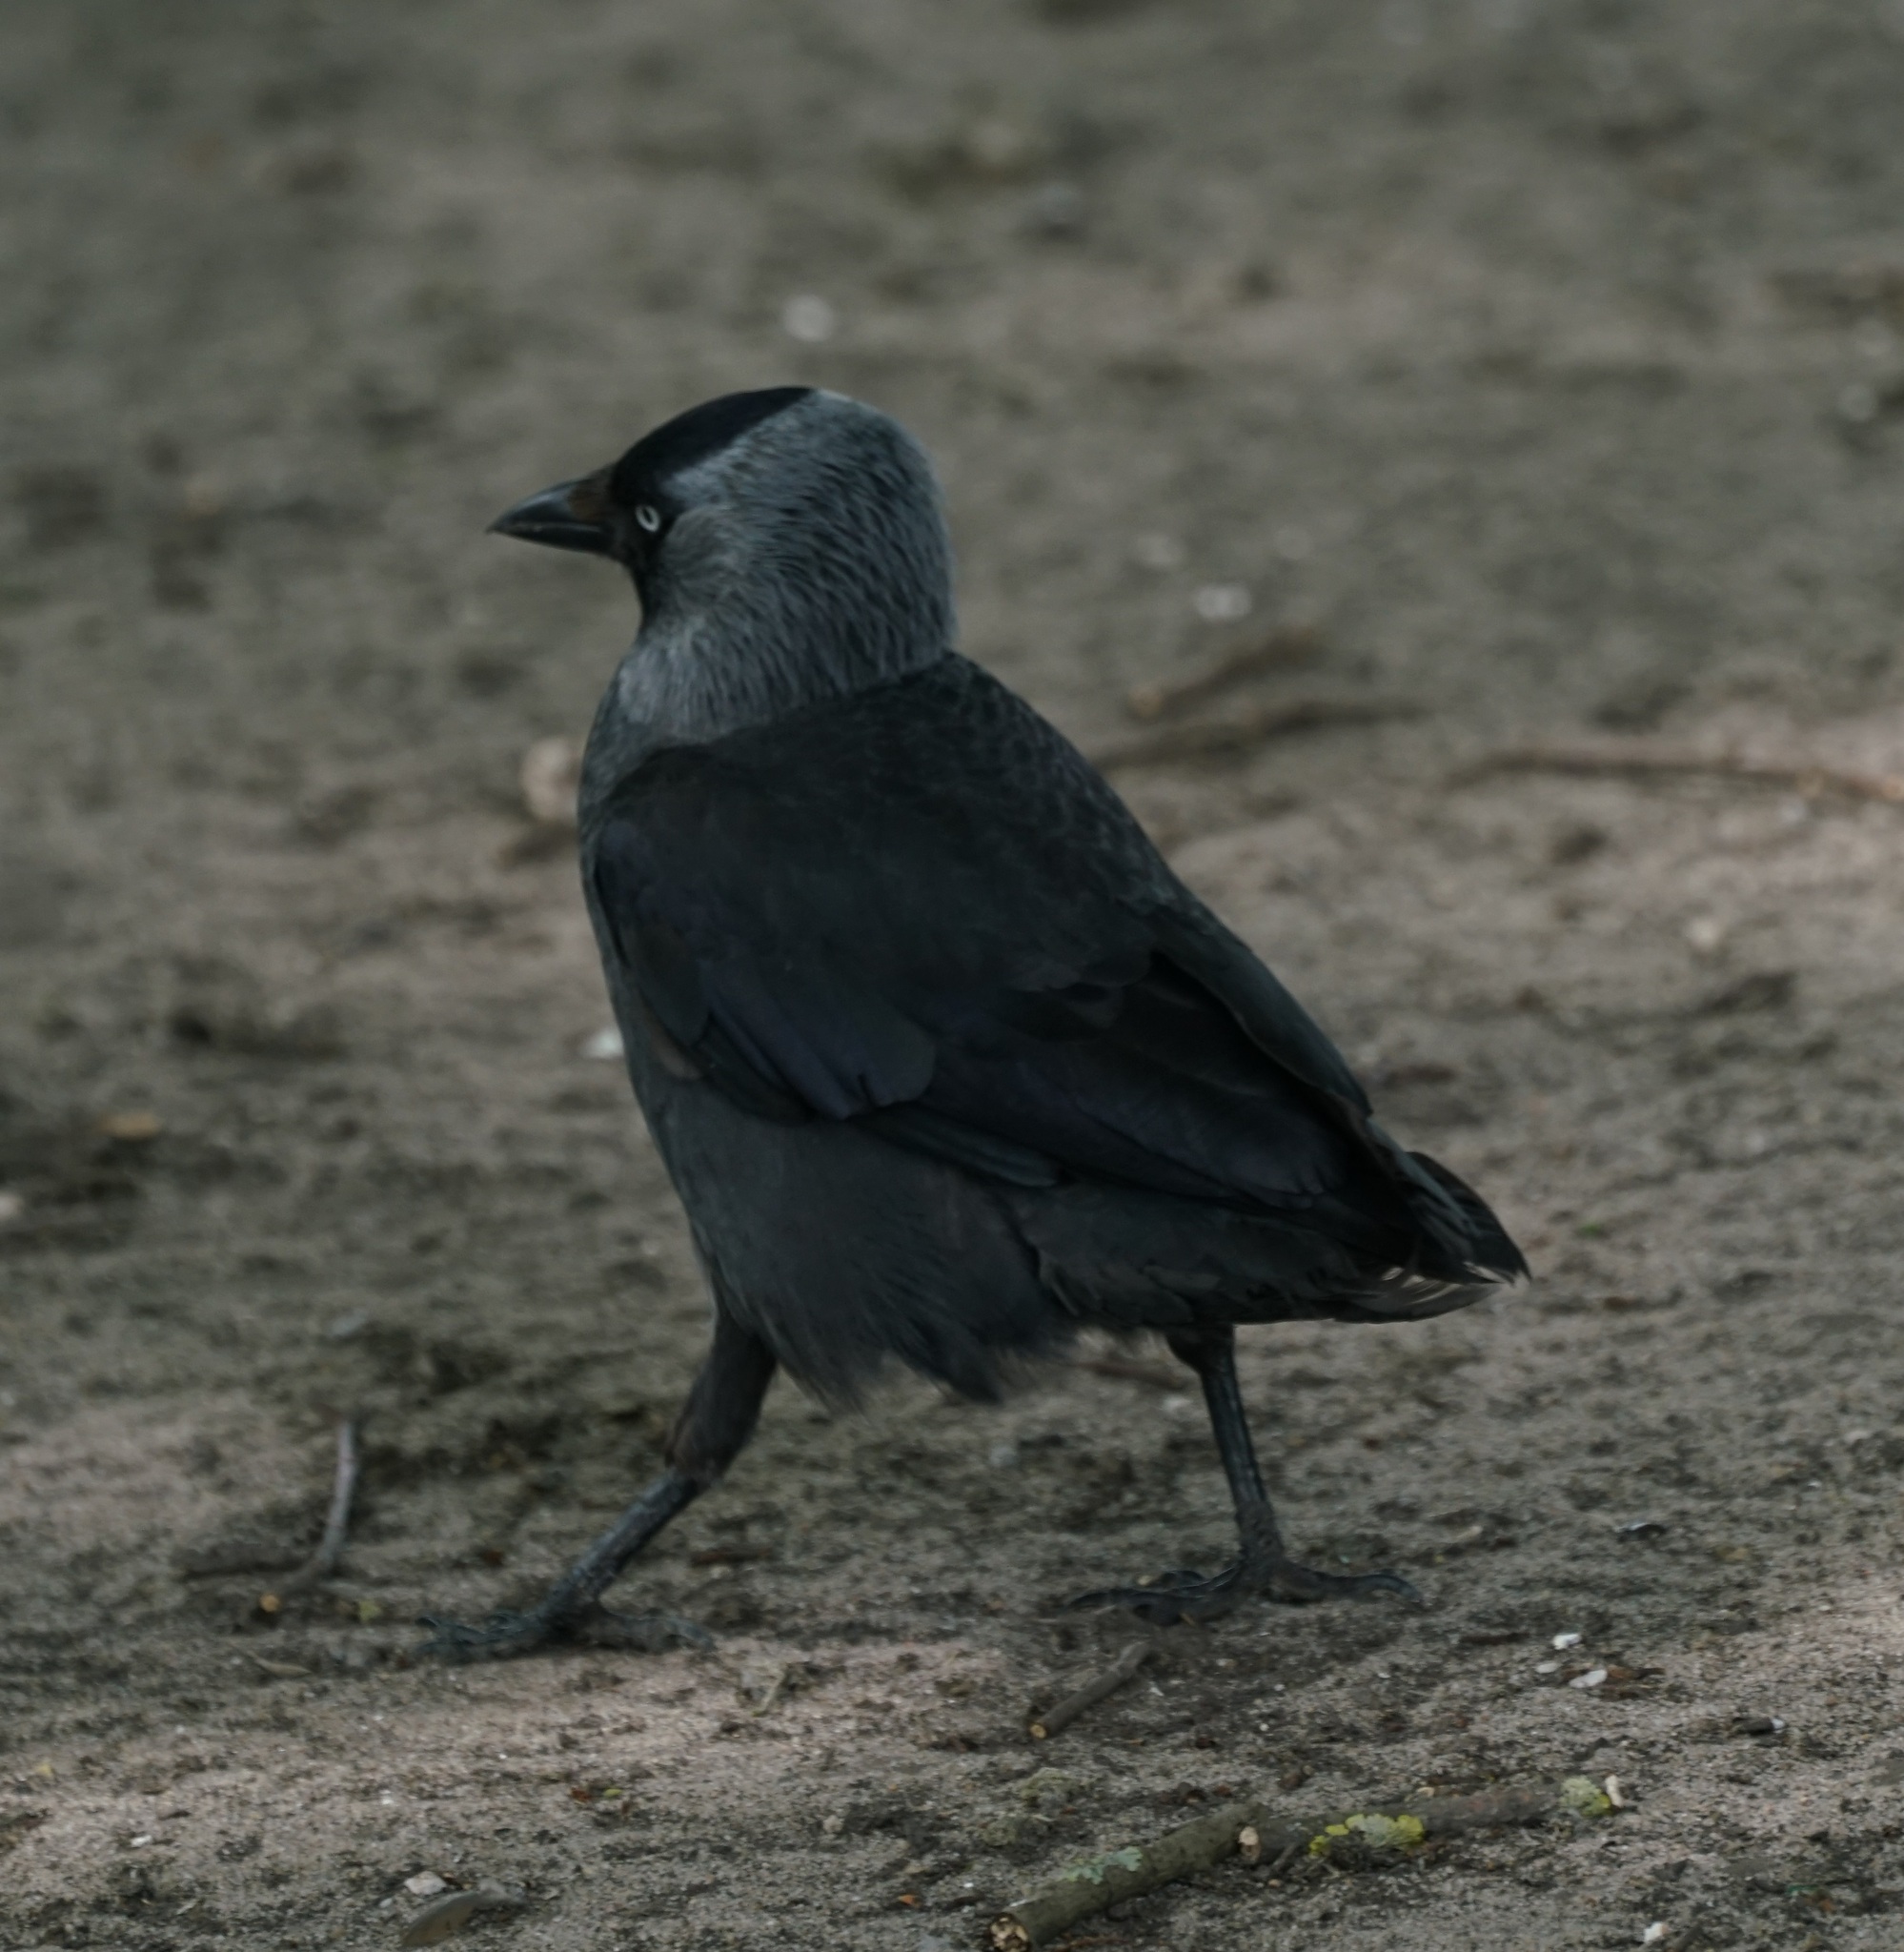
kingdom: Animalia
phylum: Chordata
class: Aves
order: Passeriformes
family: Corvidae
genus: Coloeus
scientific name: Coloeus monedula
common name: Western jackdaw
